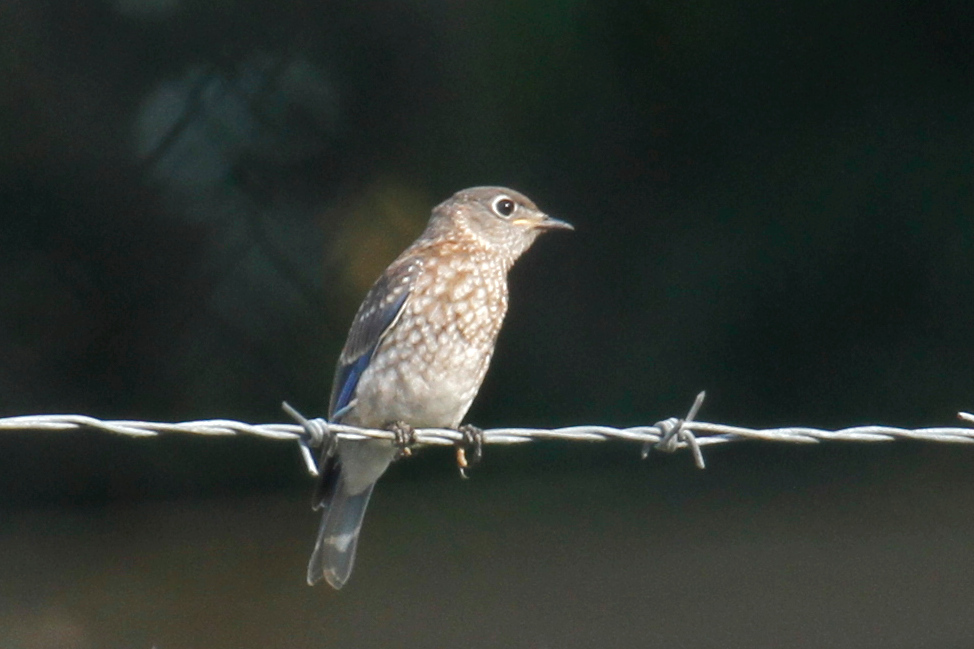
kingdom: Animalia
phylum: Chordata
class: Aves
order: Passeriformes
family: Turdidae
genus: Sialia
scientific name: Sialia sialis
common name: Eastern bluebird
